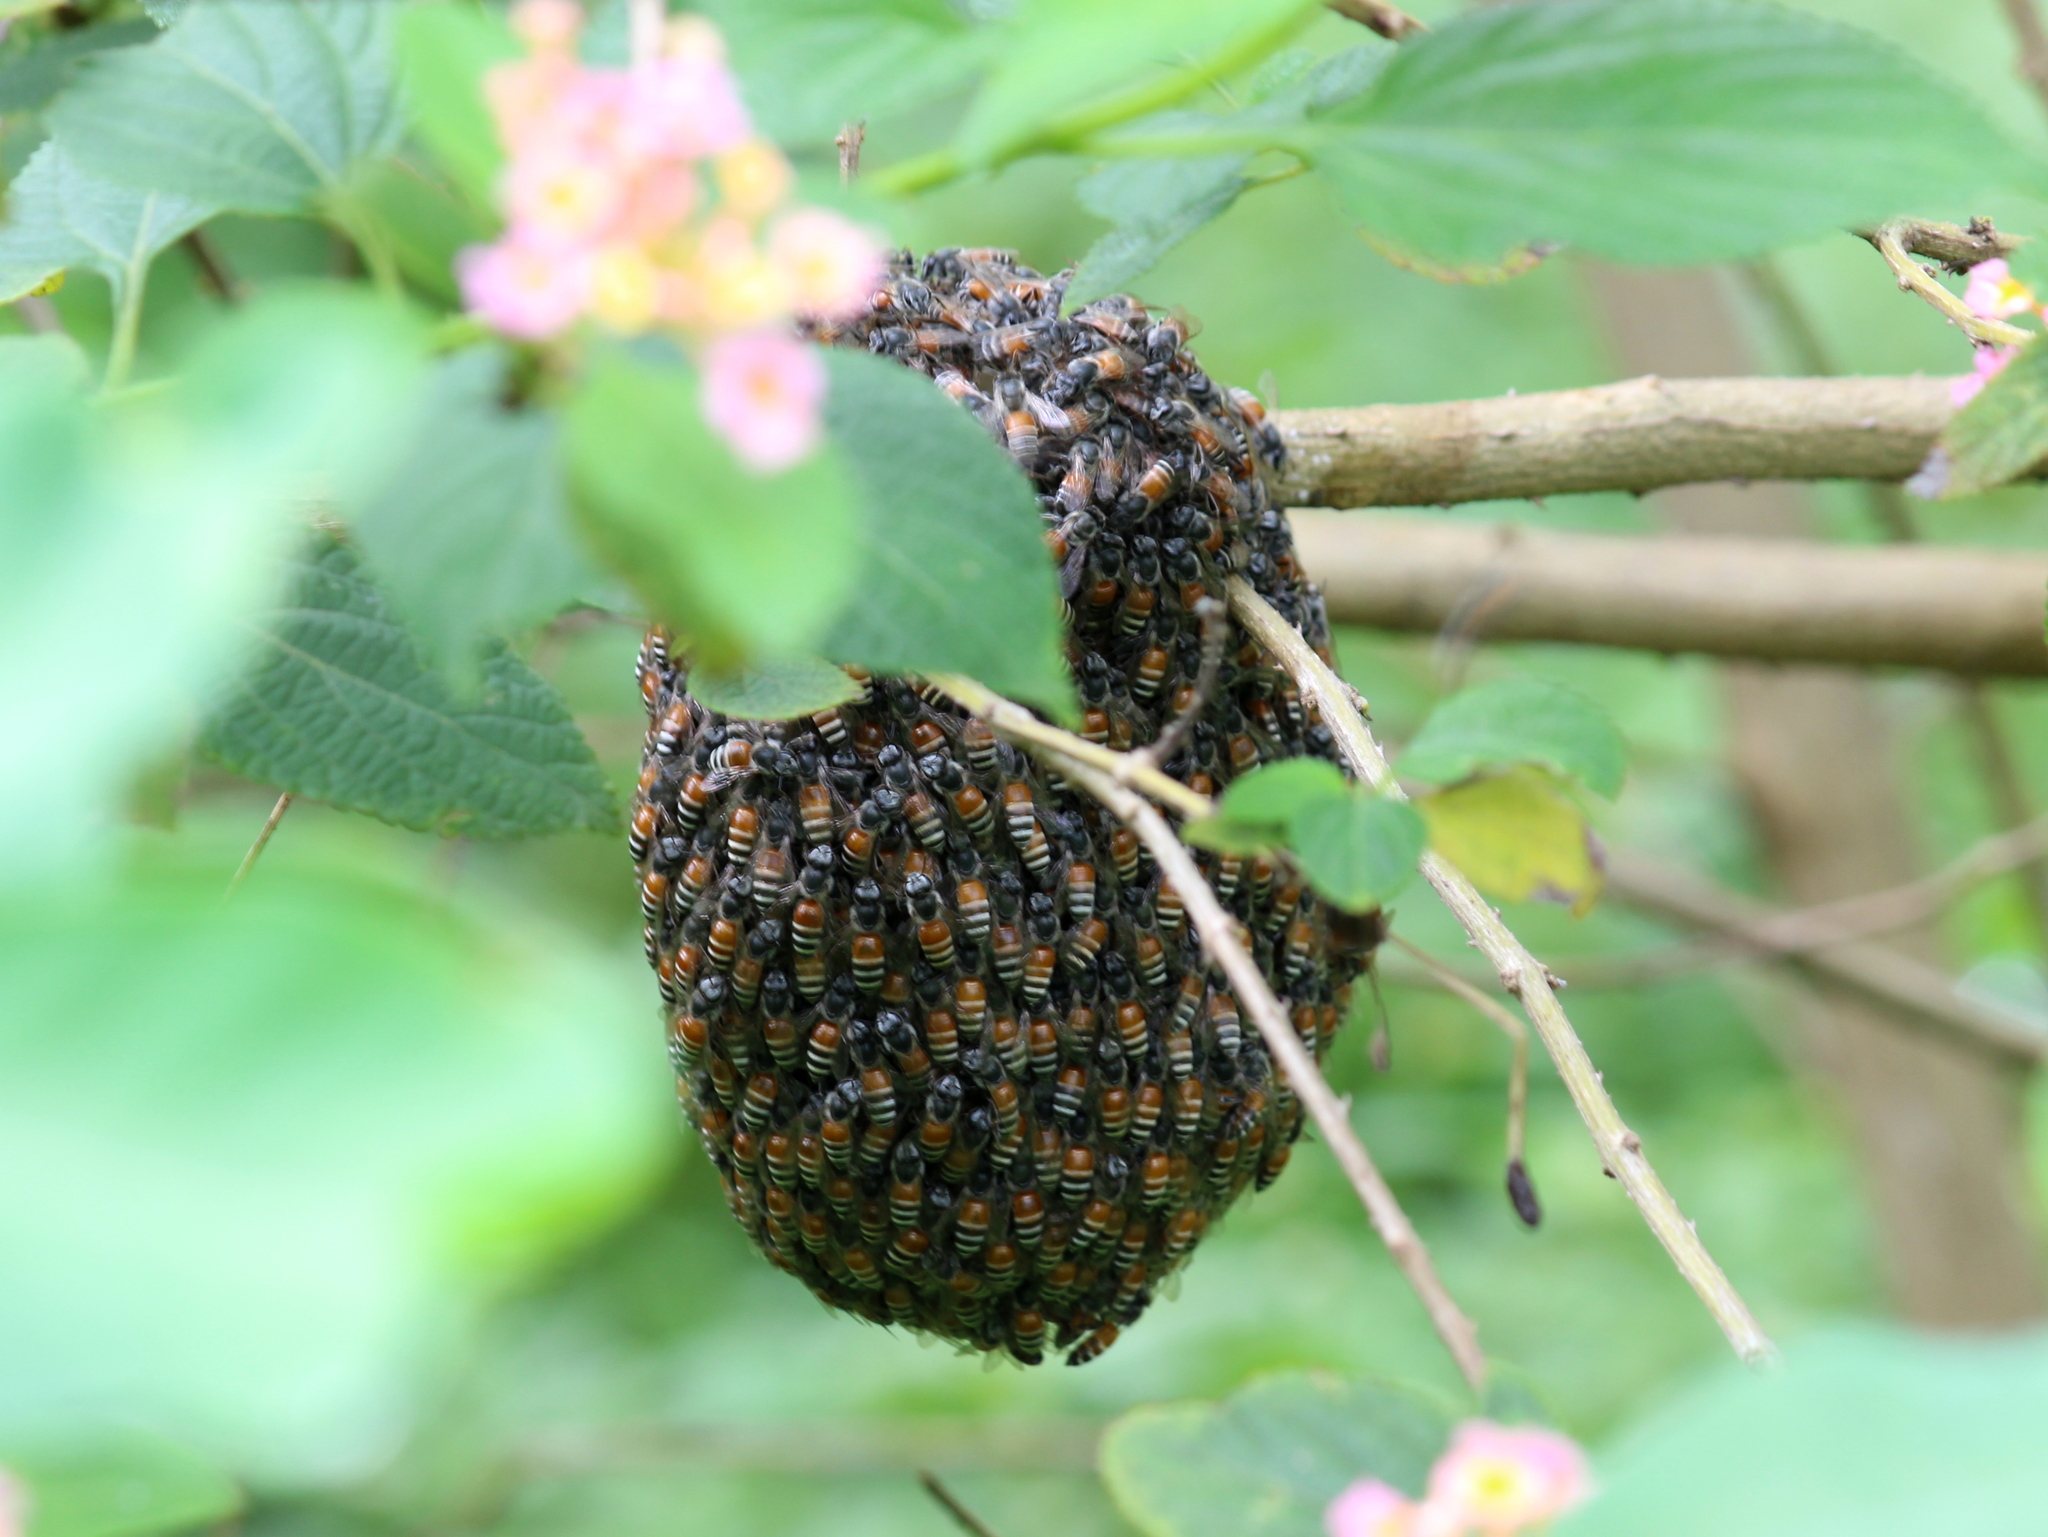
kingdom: Animalia
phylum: Arthropoda
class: Insecta
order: Hymenoptera
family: Apidae
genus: Apis
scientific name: Apis florea
